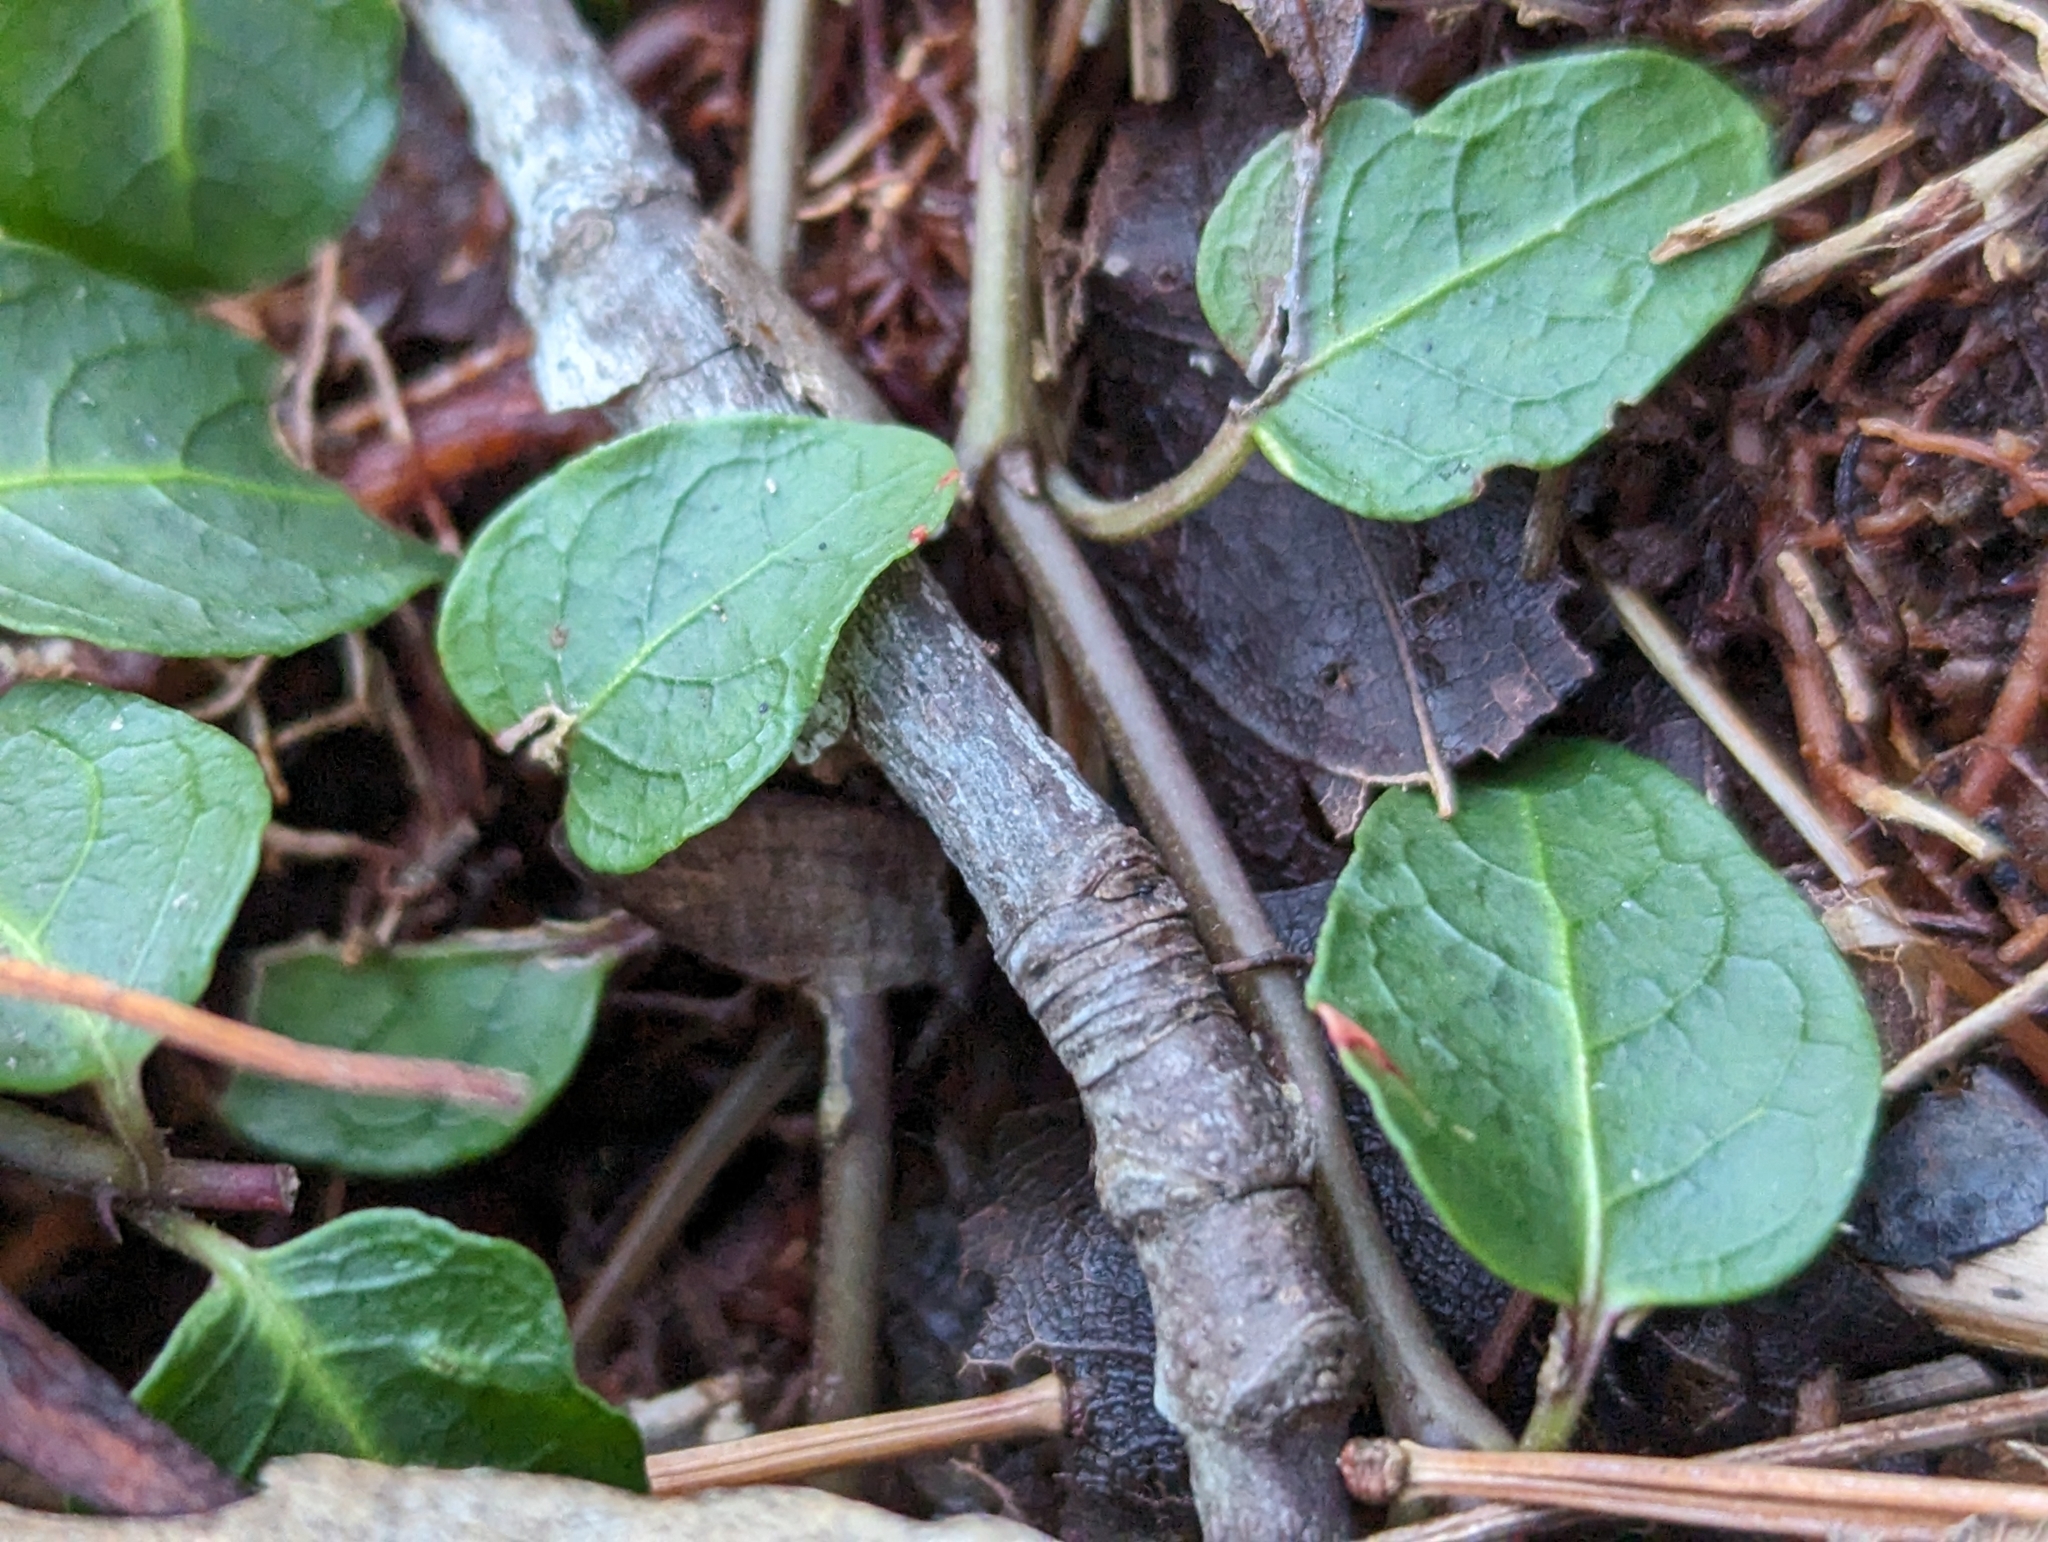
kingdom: Plantae
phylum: Tracheophyta
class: Magnoliopsida
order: Gentianales
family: Rubiaceae
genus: Mitchella
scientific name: Mitchella repens
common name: Partridge-berry
